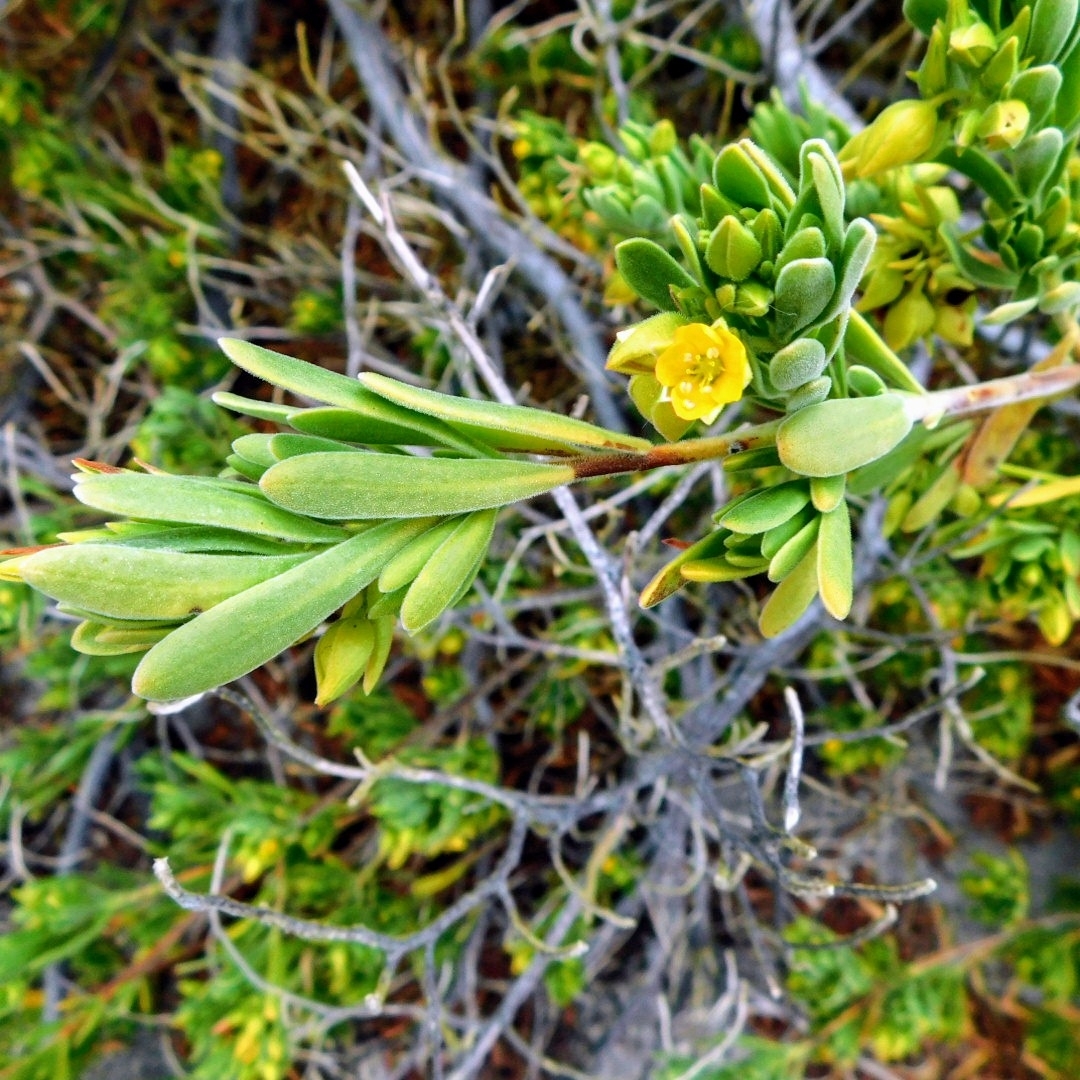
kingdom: Plantae
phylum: Tracheophyta
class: Magnoliopsida
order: Fabales
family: Surianaceae
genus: Suriana
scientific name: Suriana maritima
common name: Bay-cedar
